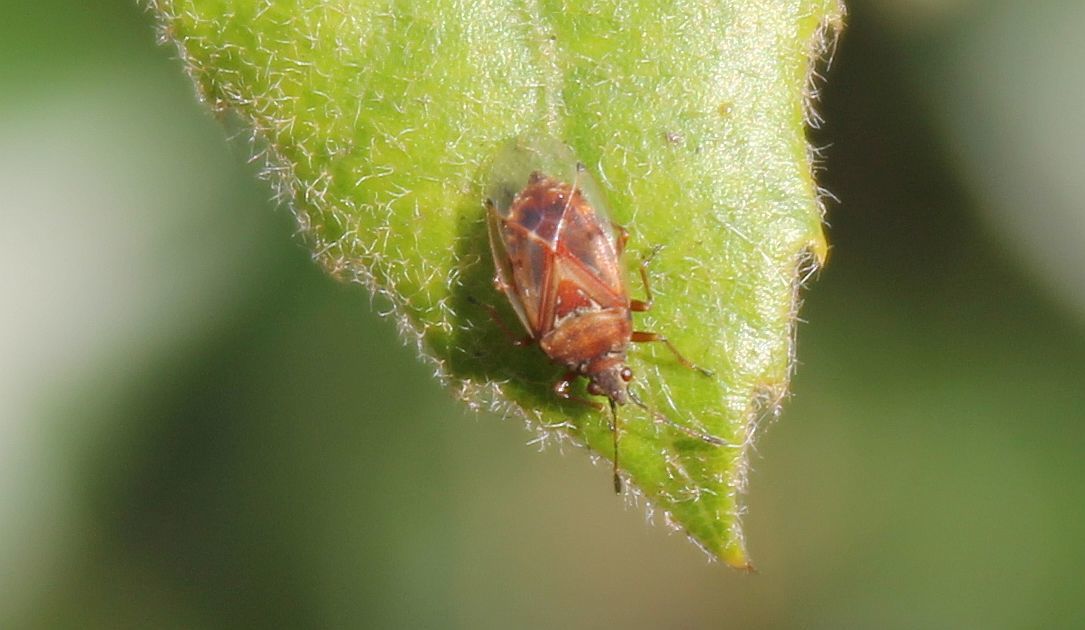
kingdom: Animalia
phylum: Arthropoda
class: Insecta
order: Hemiptera
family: Lygaeidae
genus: Kleidocerys
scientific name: Kleidocerys resedae
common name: Birch catkin bug
